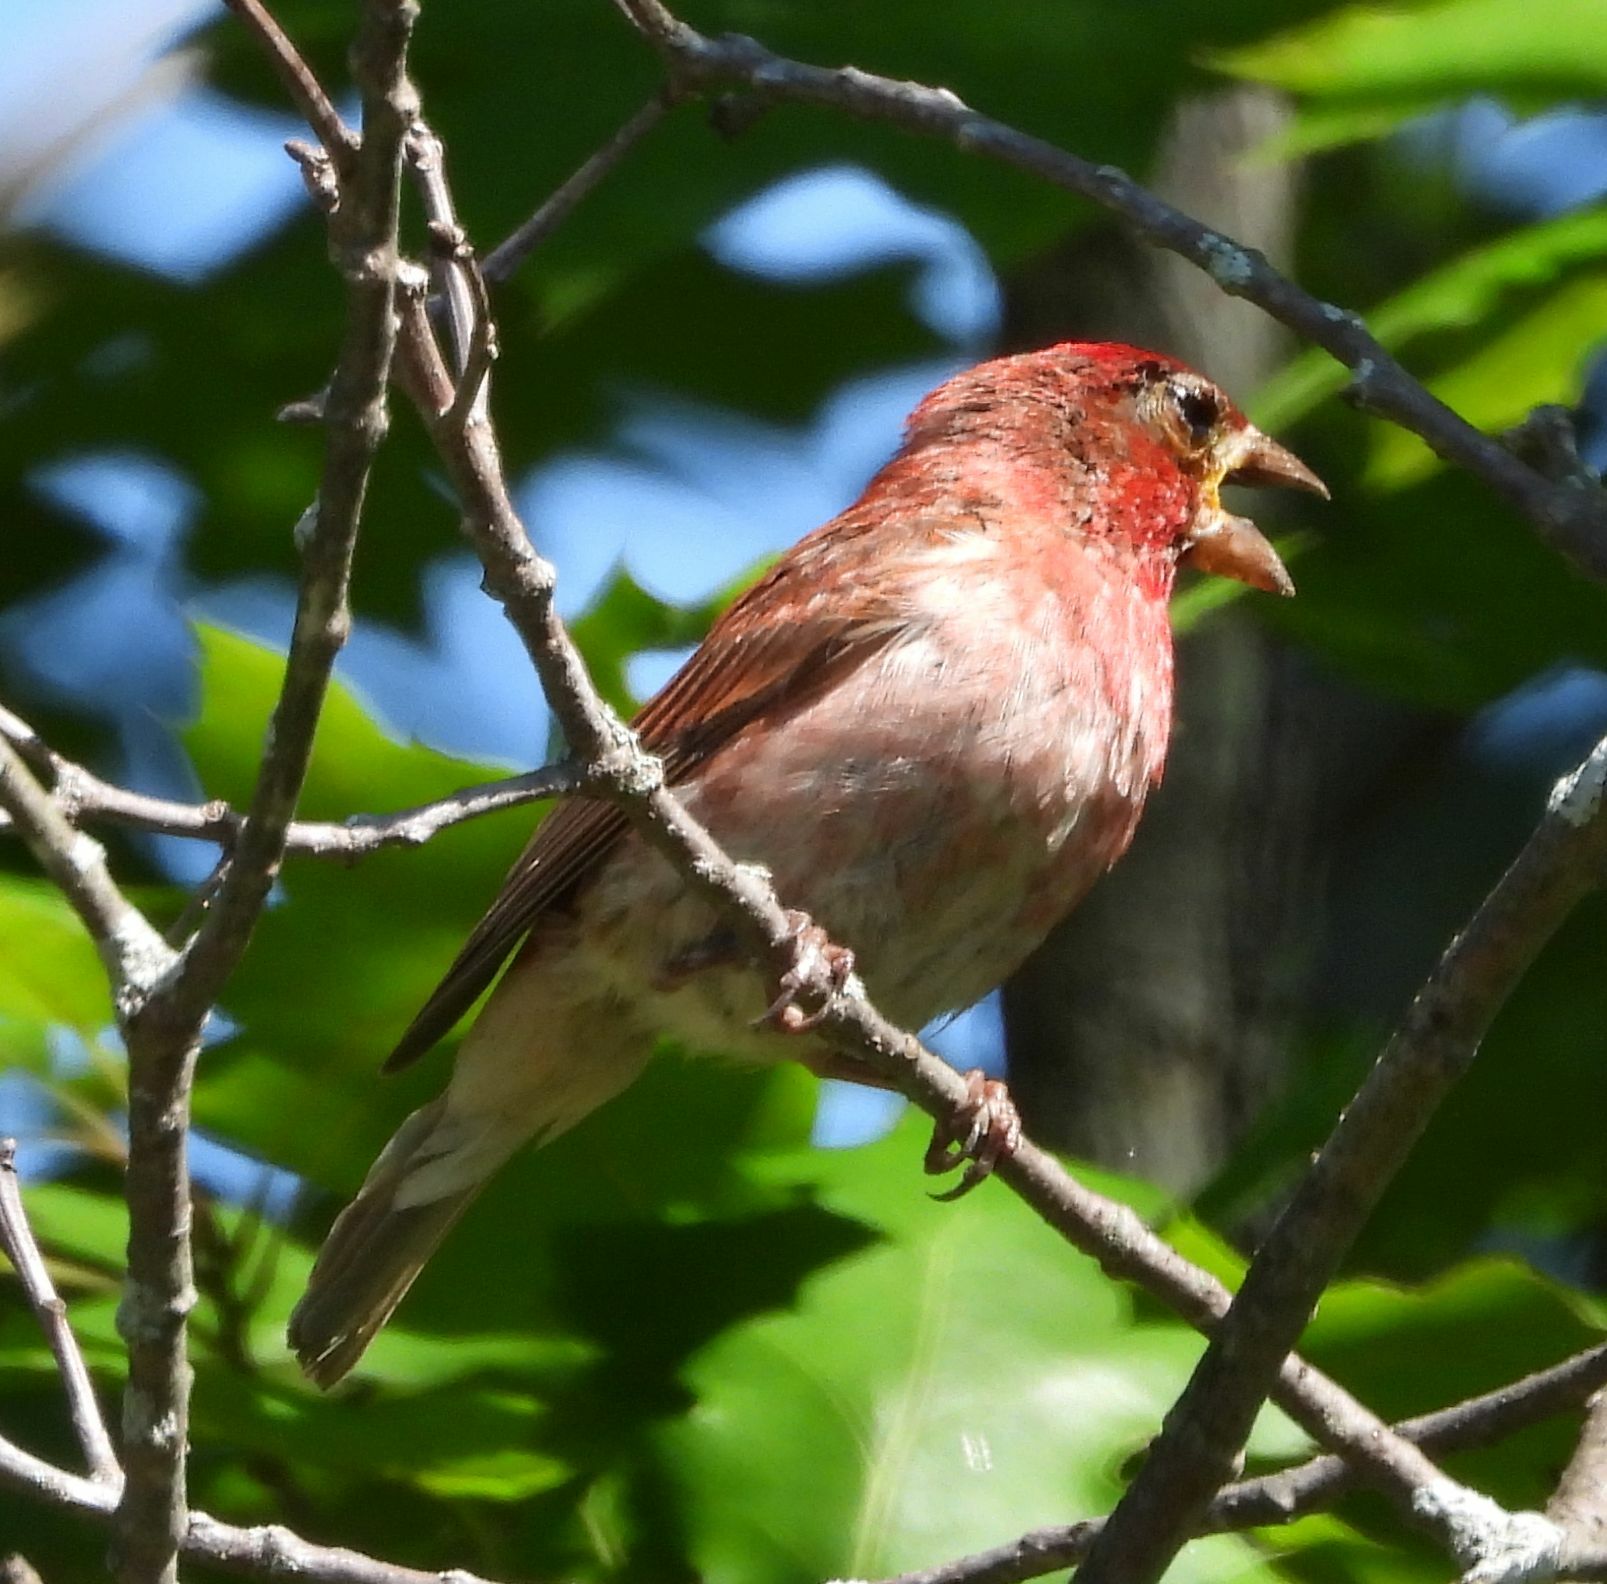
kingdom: Animalia
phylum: Chordata
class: Aves
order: Passeriformes
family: Fringillidae
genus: Haemorhous
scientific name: Haemorhous purpureus
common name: Purple finch
